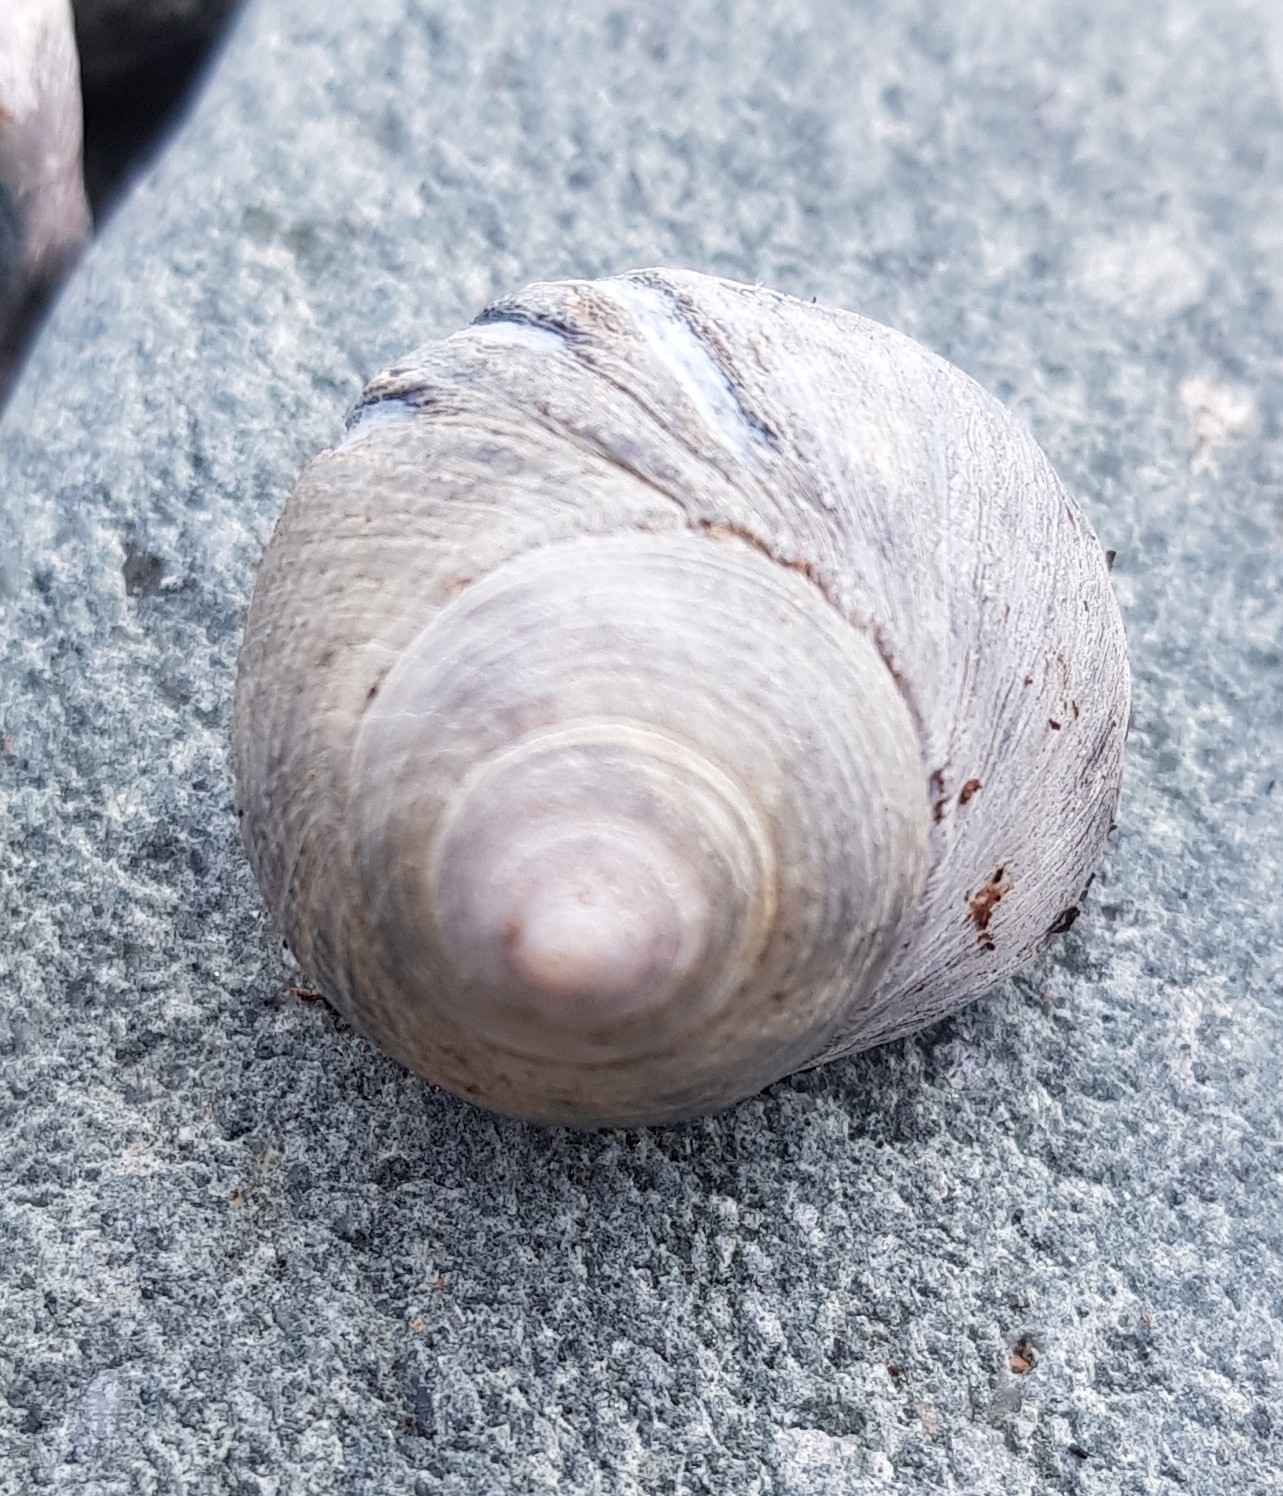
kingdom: Animalia
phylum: Mollusca
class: Gastropoda
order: Littorinimorpha
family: Littorinidae
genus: Littorina
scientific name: Littorina littorea
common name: Common periwinkle
